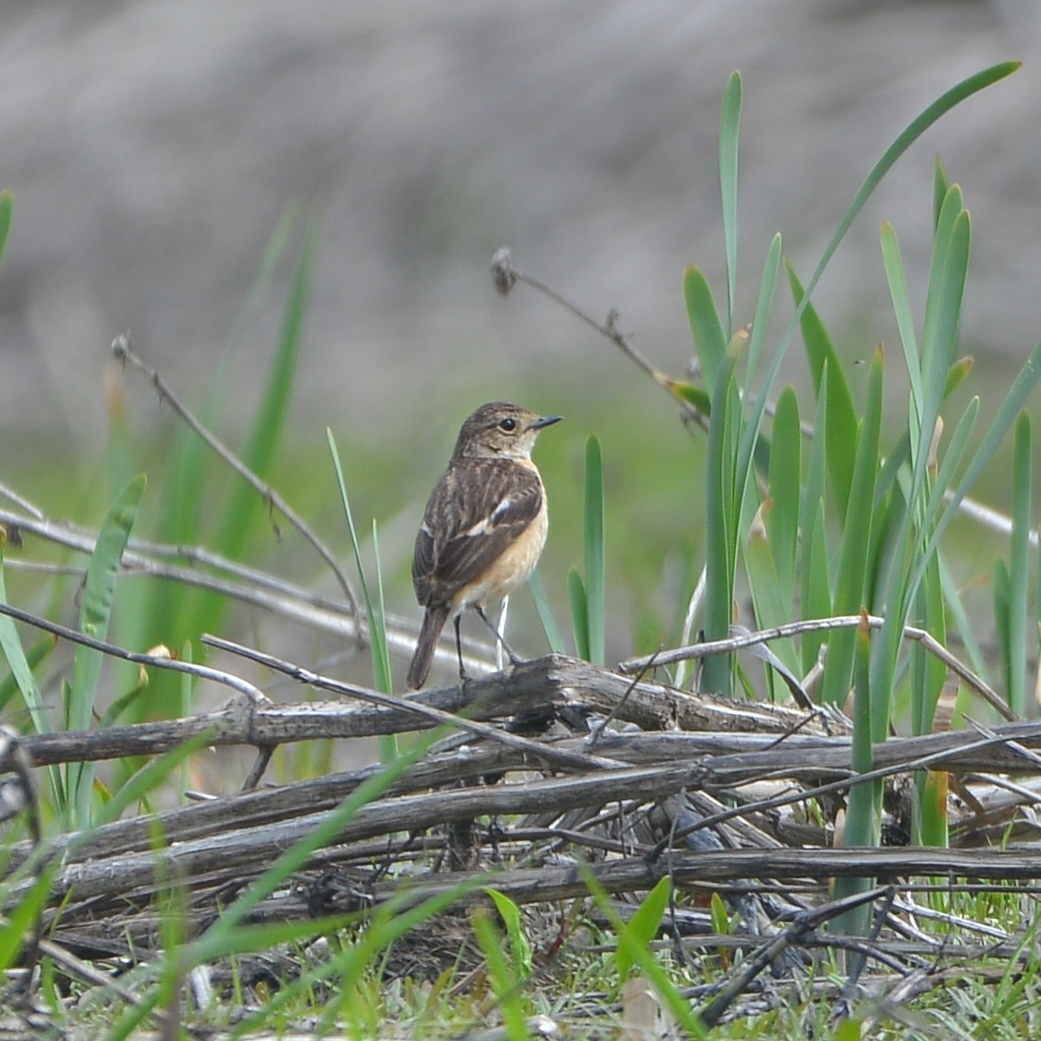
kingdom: Animalia
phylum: Chordata
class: Aves
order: Passeriformes
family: Muscicapidae
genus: Saxicola
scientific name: Saxicola stejnegeri
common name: Stejneger's stonechat
